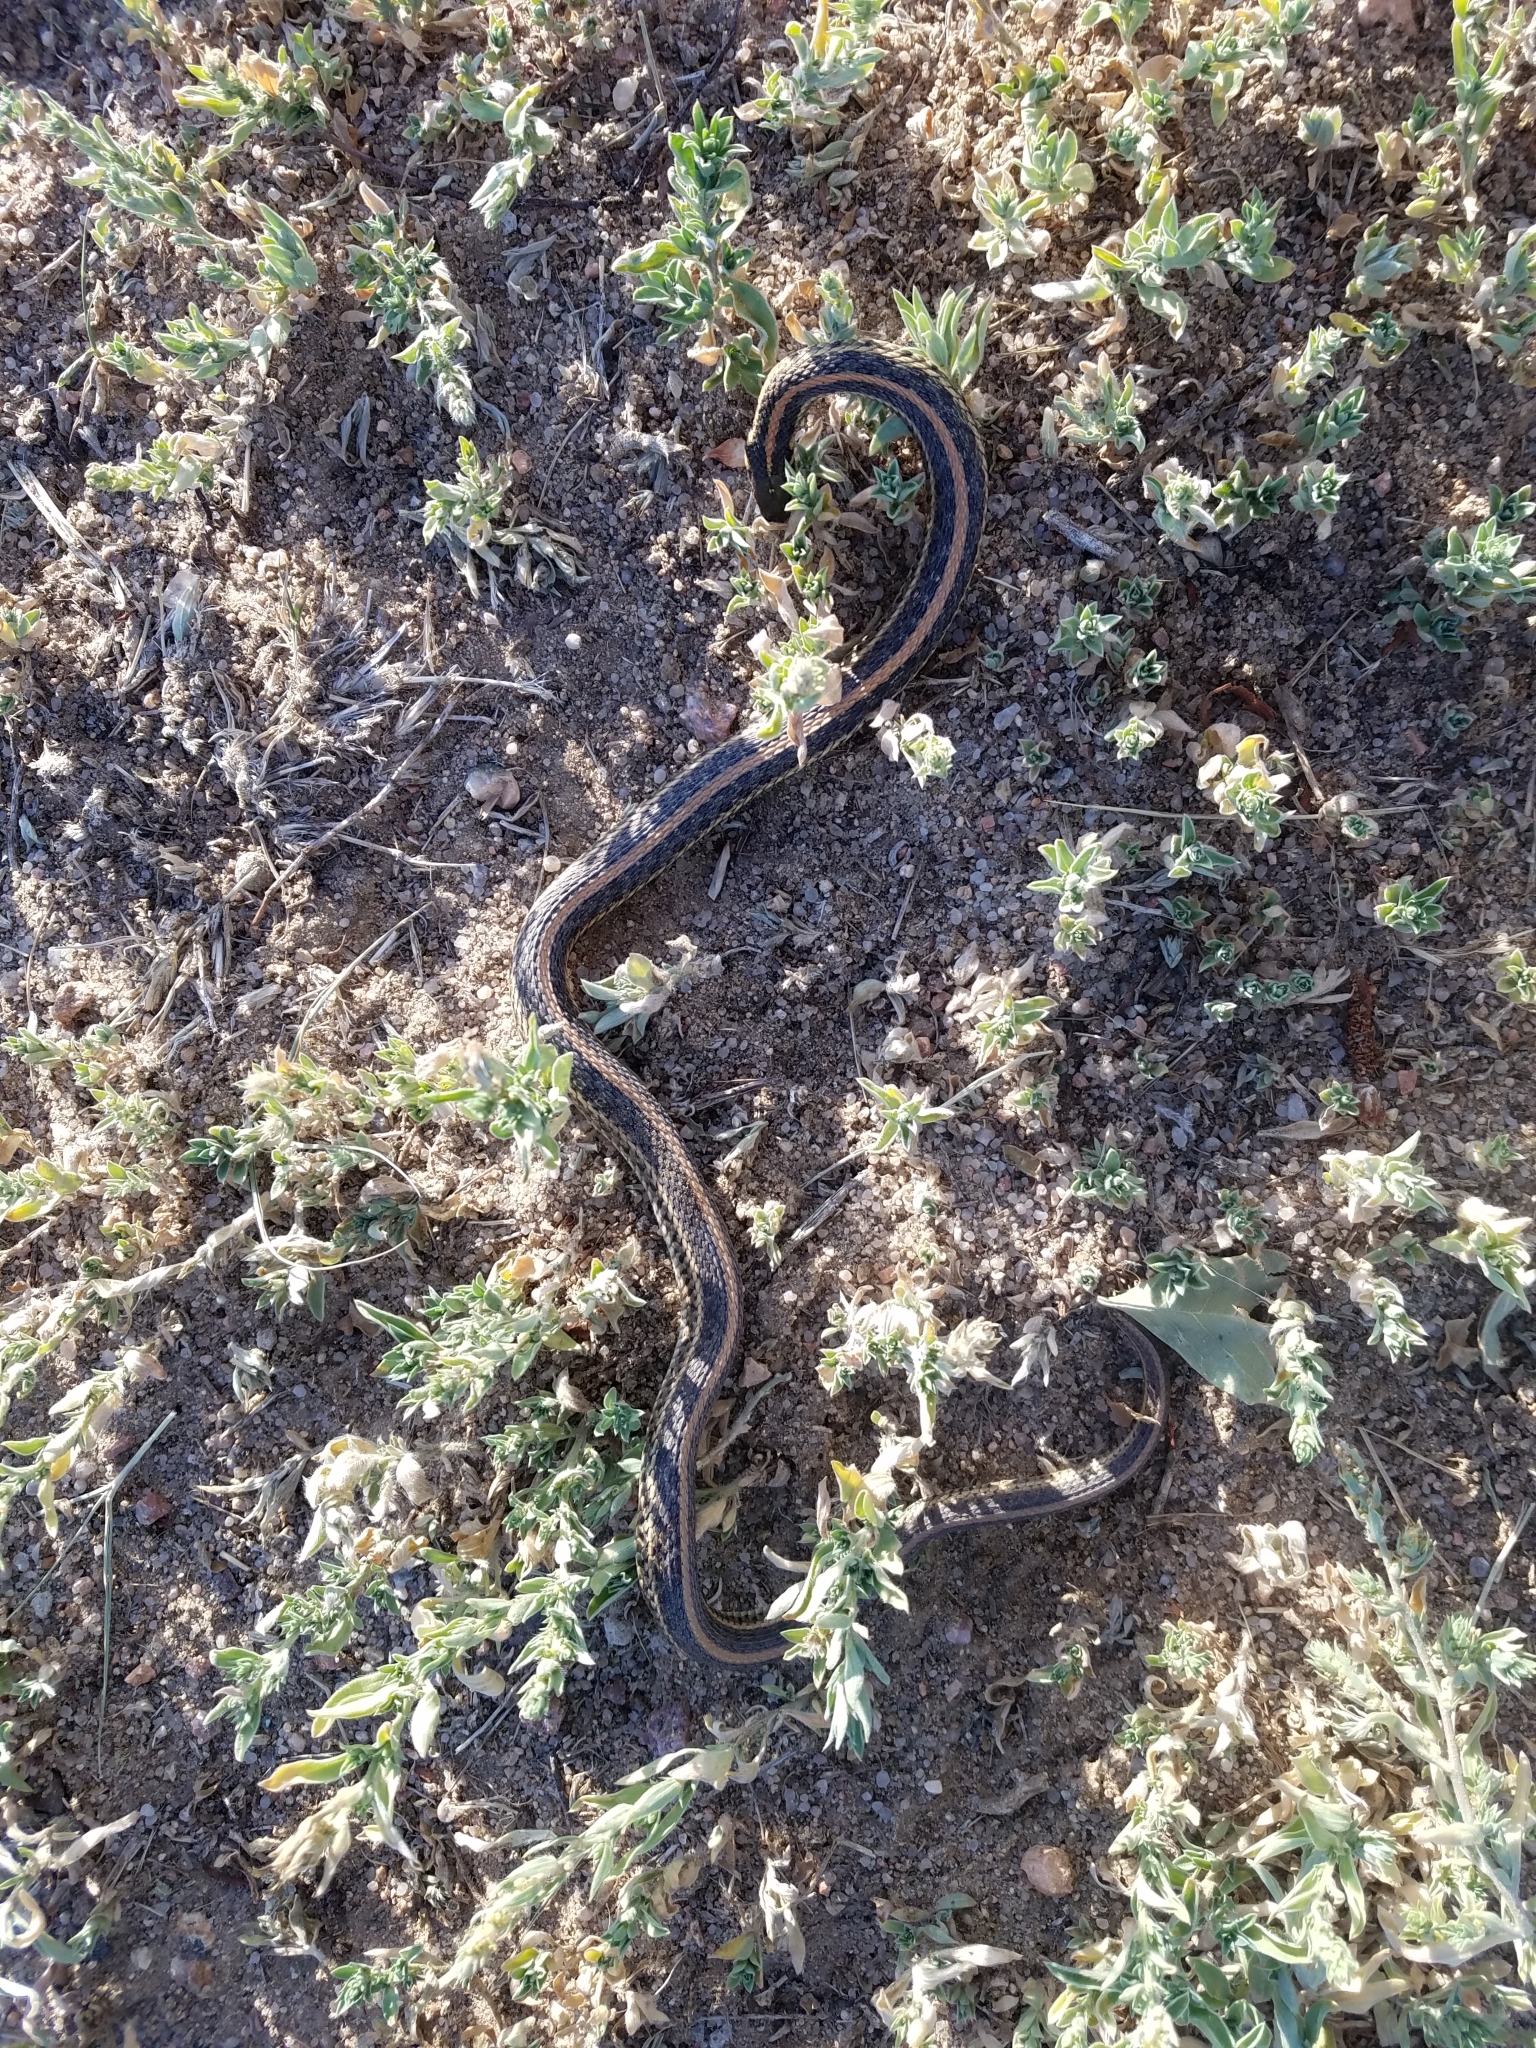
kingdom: Animalia
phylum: Chordata
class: Squamata
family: Colubridae
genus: Thamnophis
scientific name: Thamnophis radix
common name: Plains garter snake
